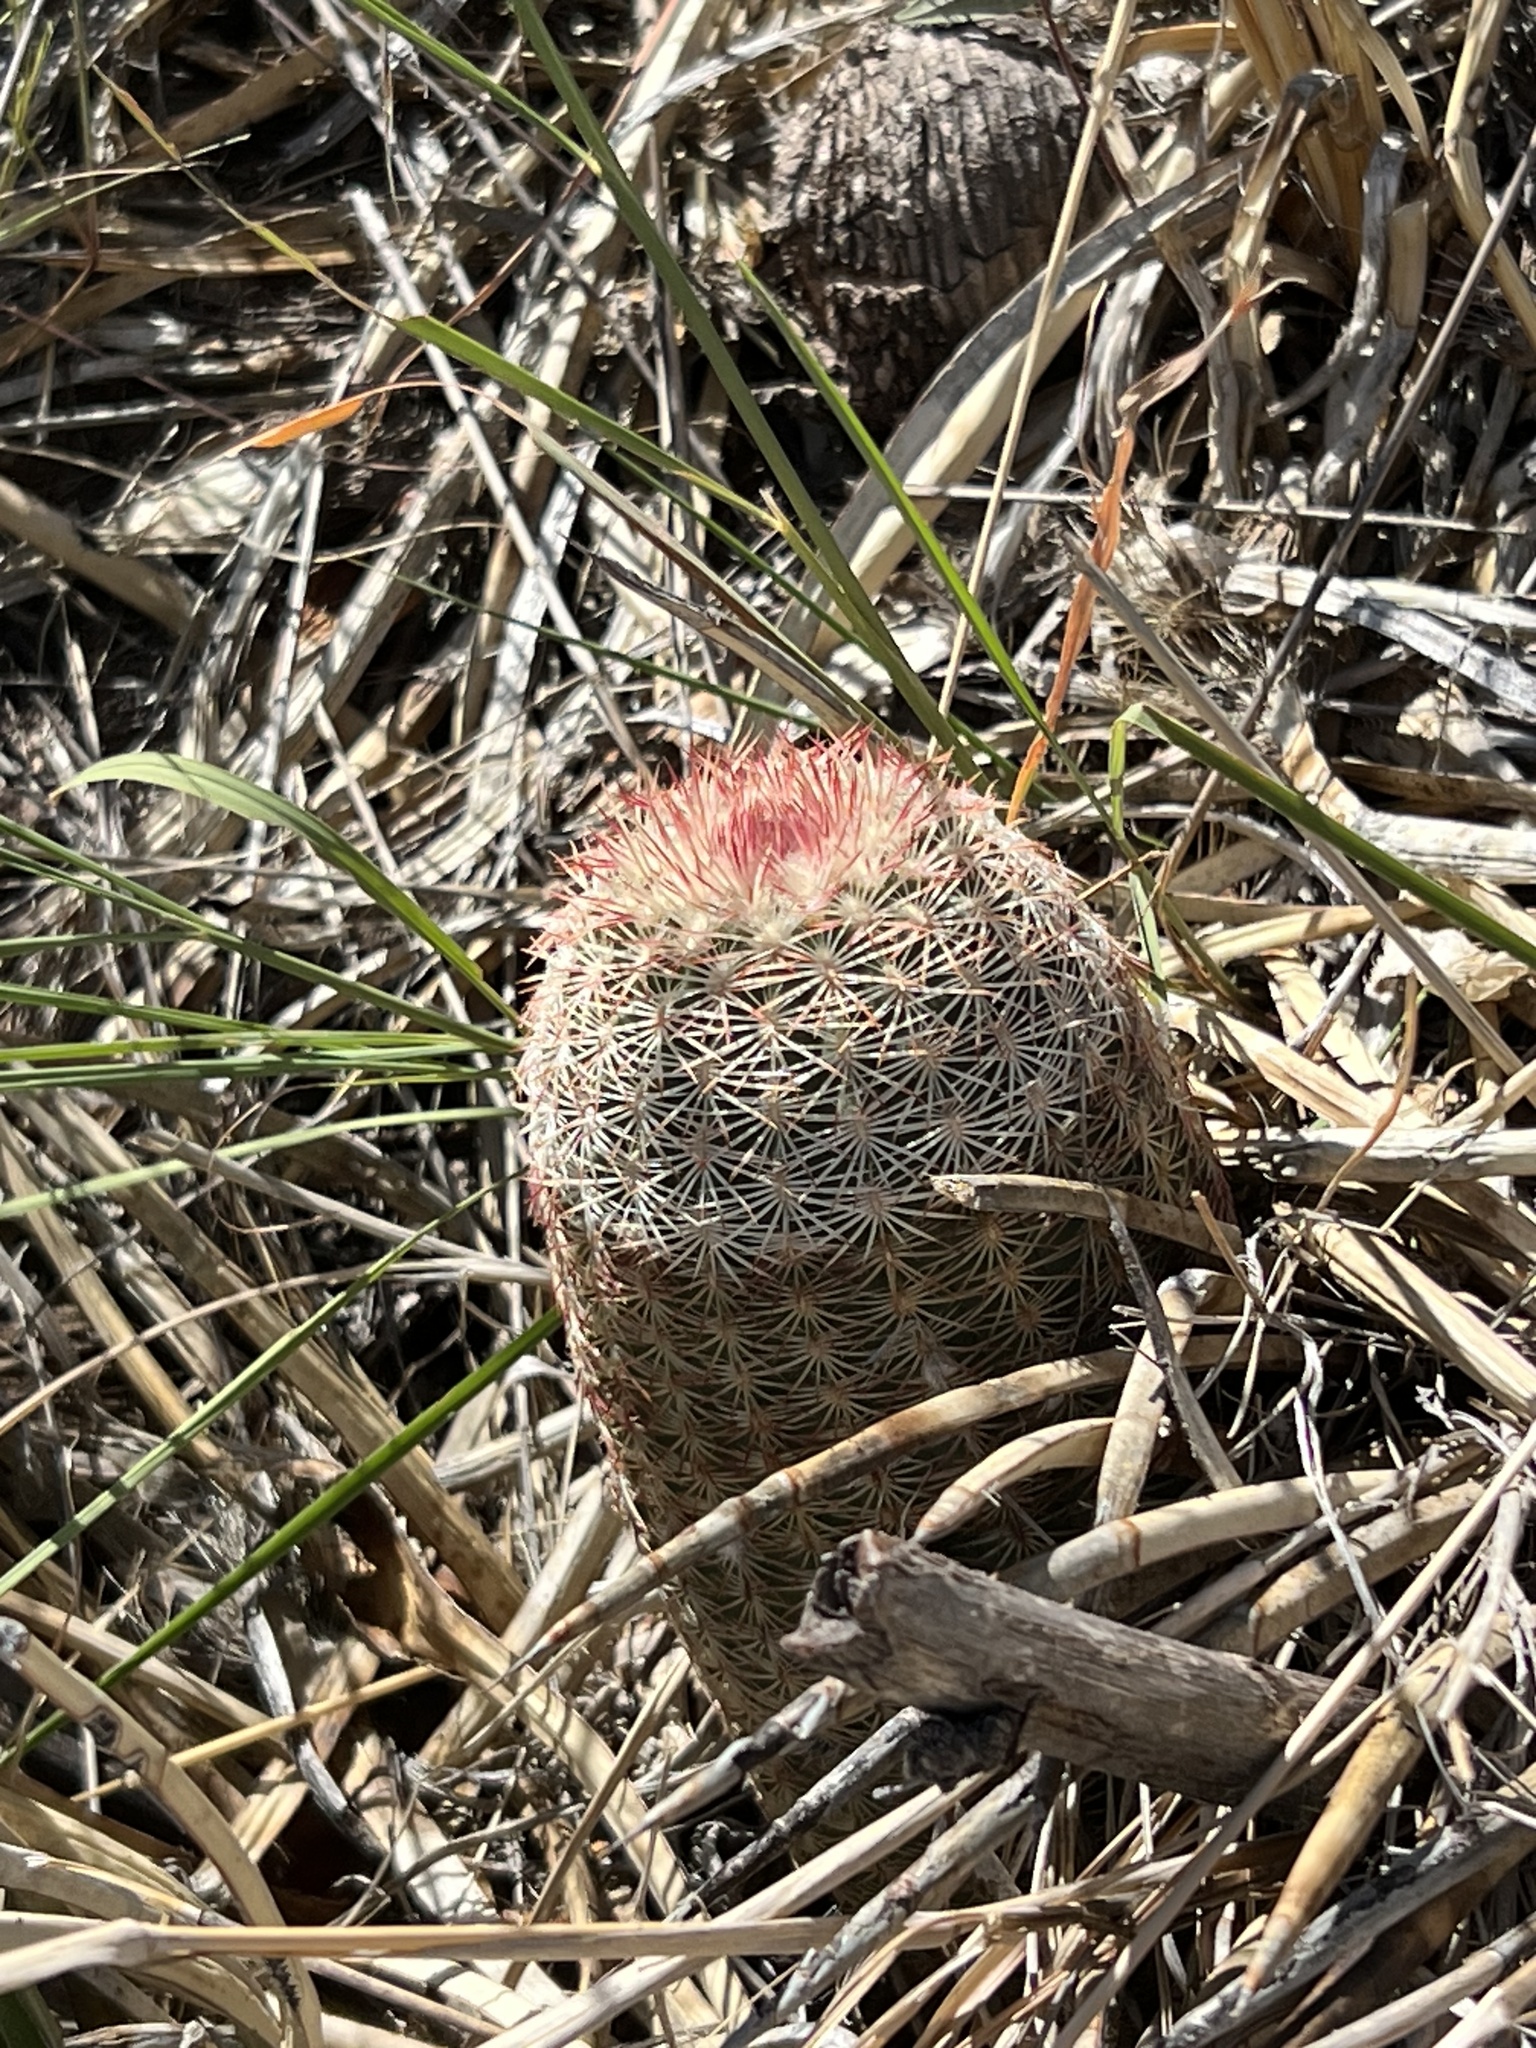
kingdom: Plantae
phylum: Tracheophyta
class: Magnoliopsida
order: Caryophyllales
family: Cactaceae
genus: Echinocereus
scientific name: Echinocereus rigidissimus
